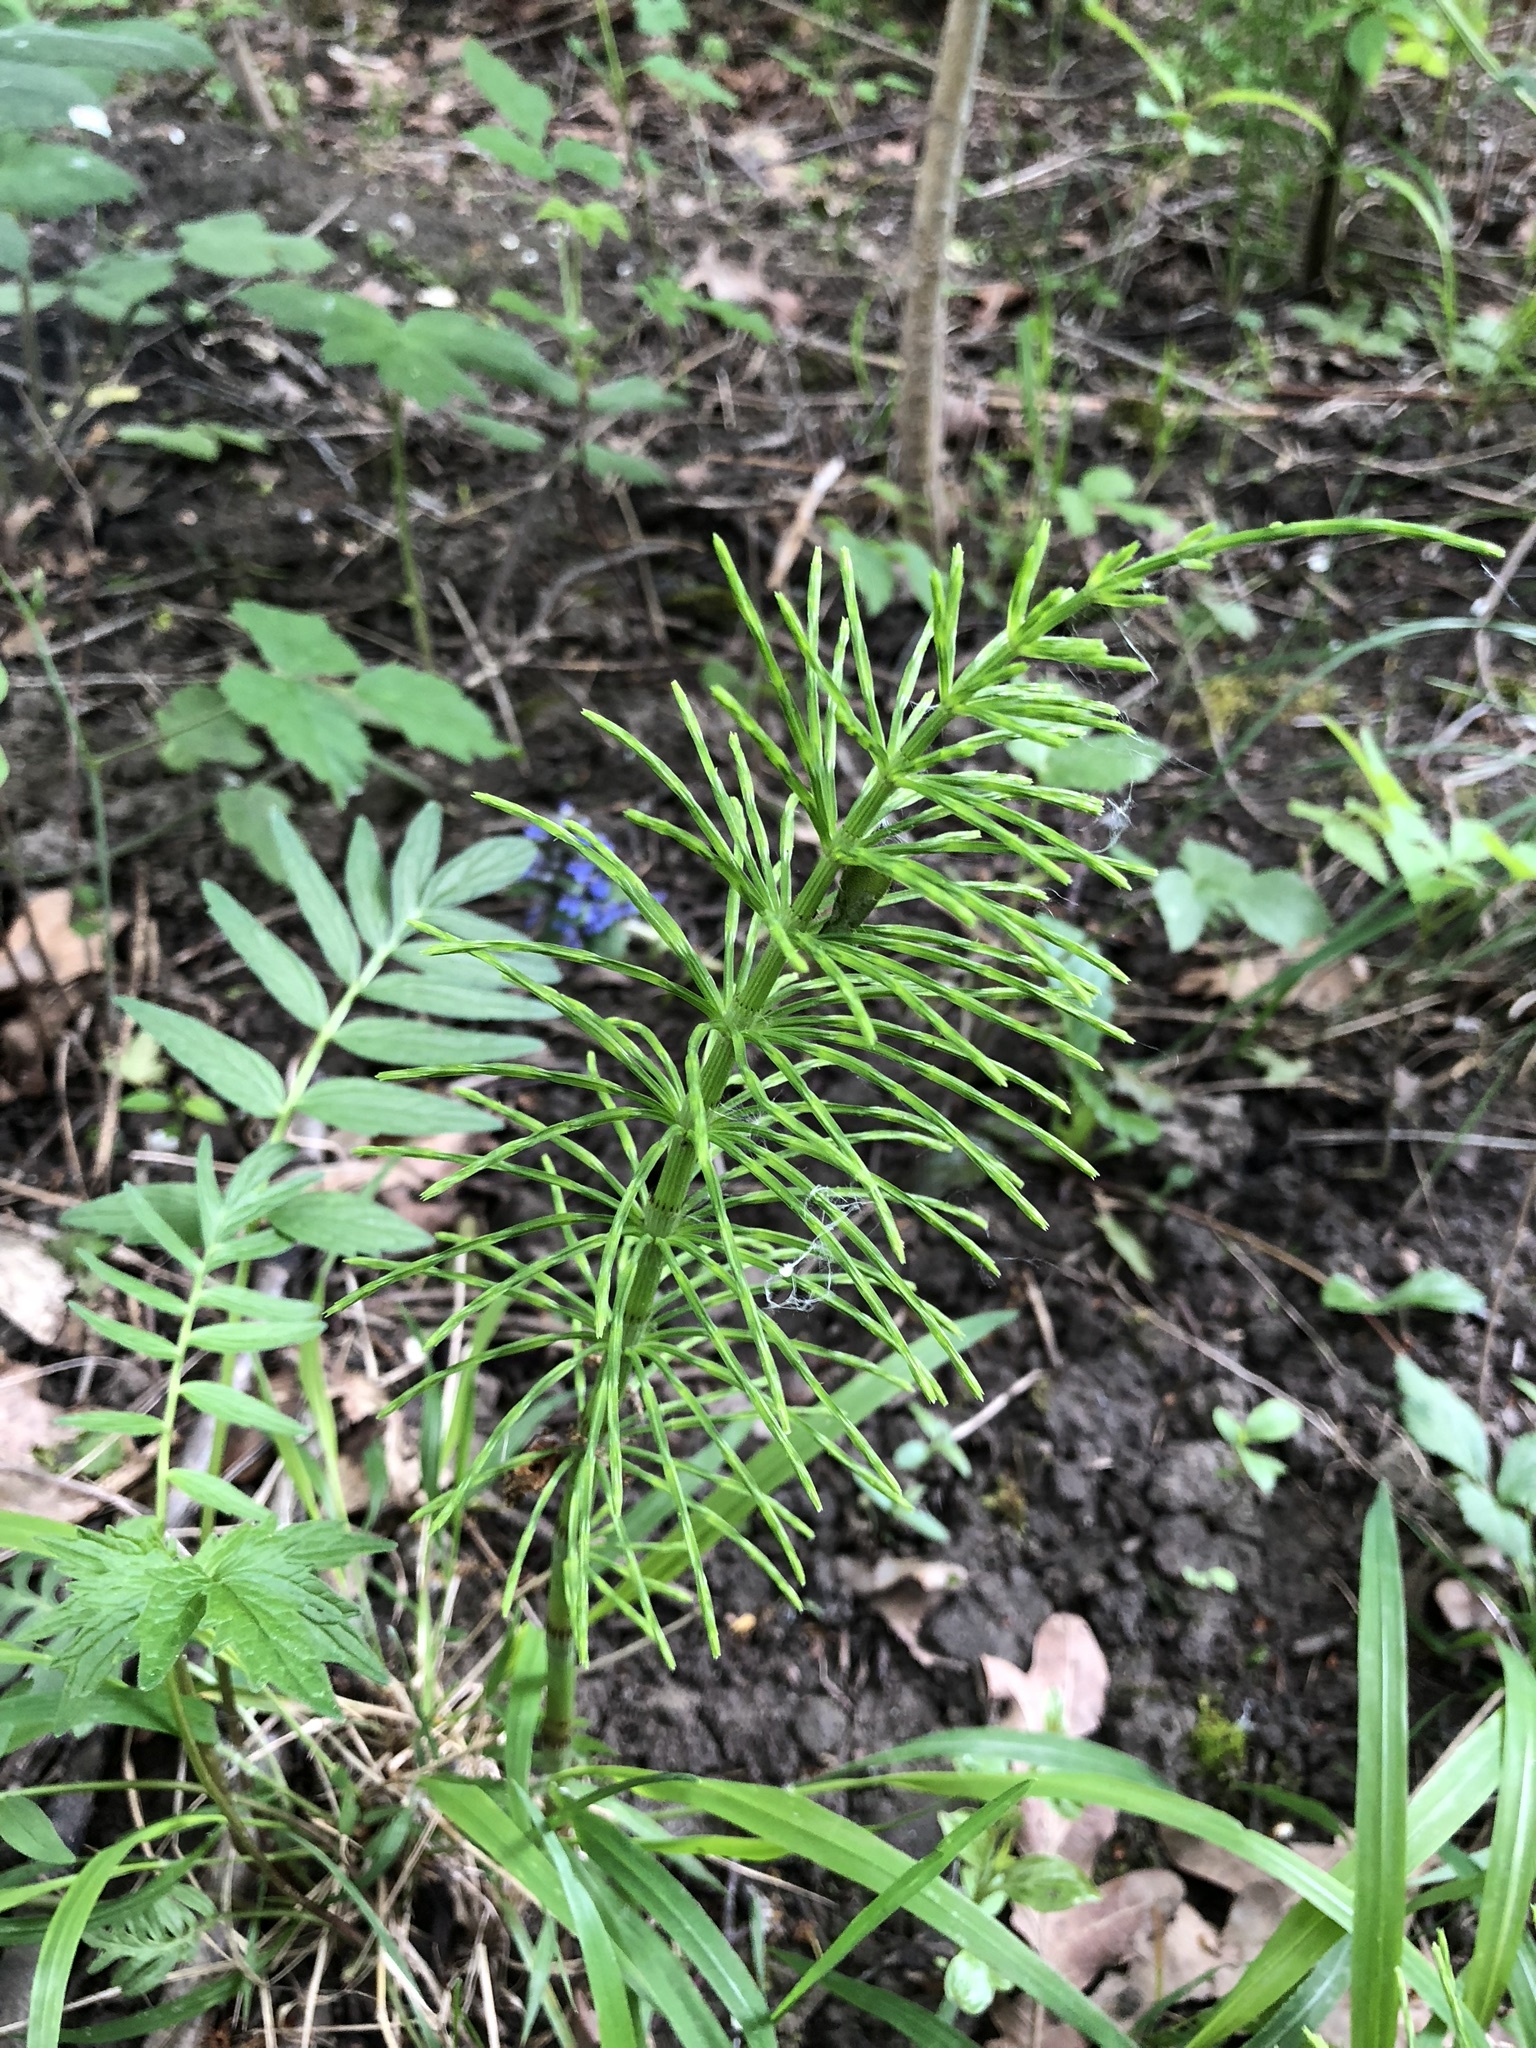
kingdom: Plantae
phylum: Tracheophyta
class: Polypodiopsida
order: Equisetales
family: Equisetaceae
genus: Equisetum
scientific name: Equisetum arvense
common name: Field horsetail
